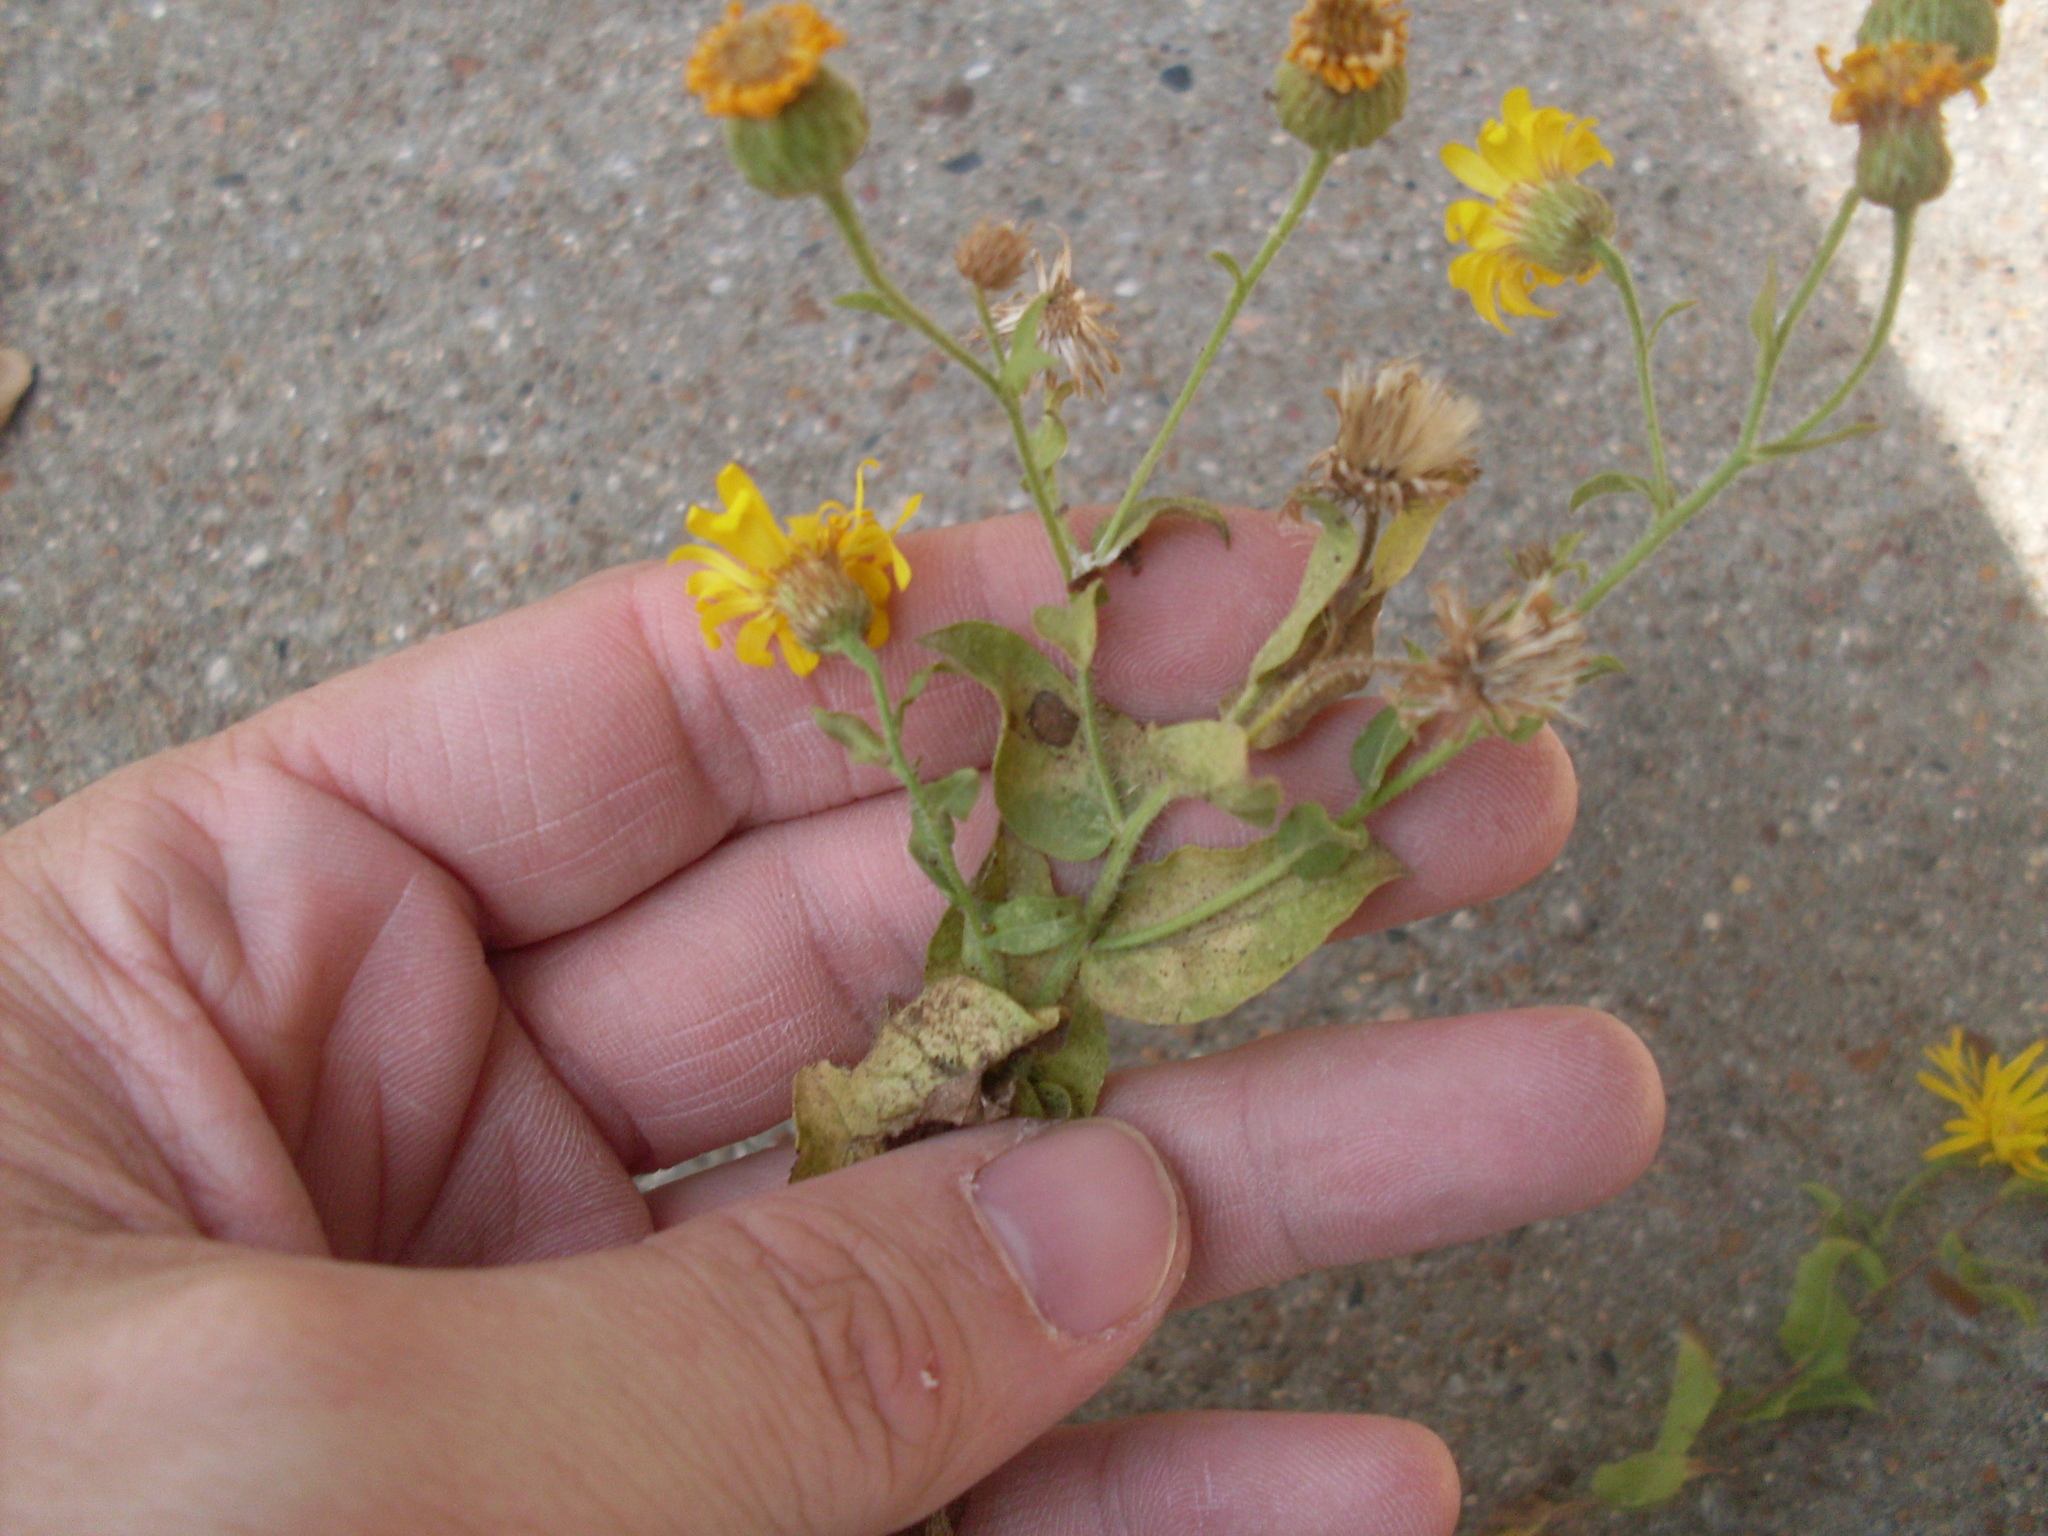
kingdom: Plantae
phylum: Tracheophyta
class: Magnoliopsida
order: Asterales
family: Asteraceae
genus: Heterotheca
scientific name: Heterotheca subaxillaris
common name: Camphorweed
